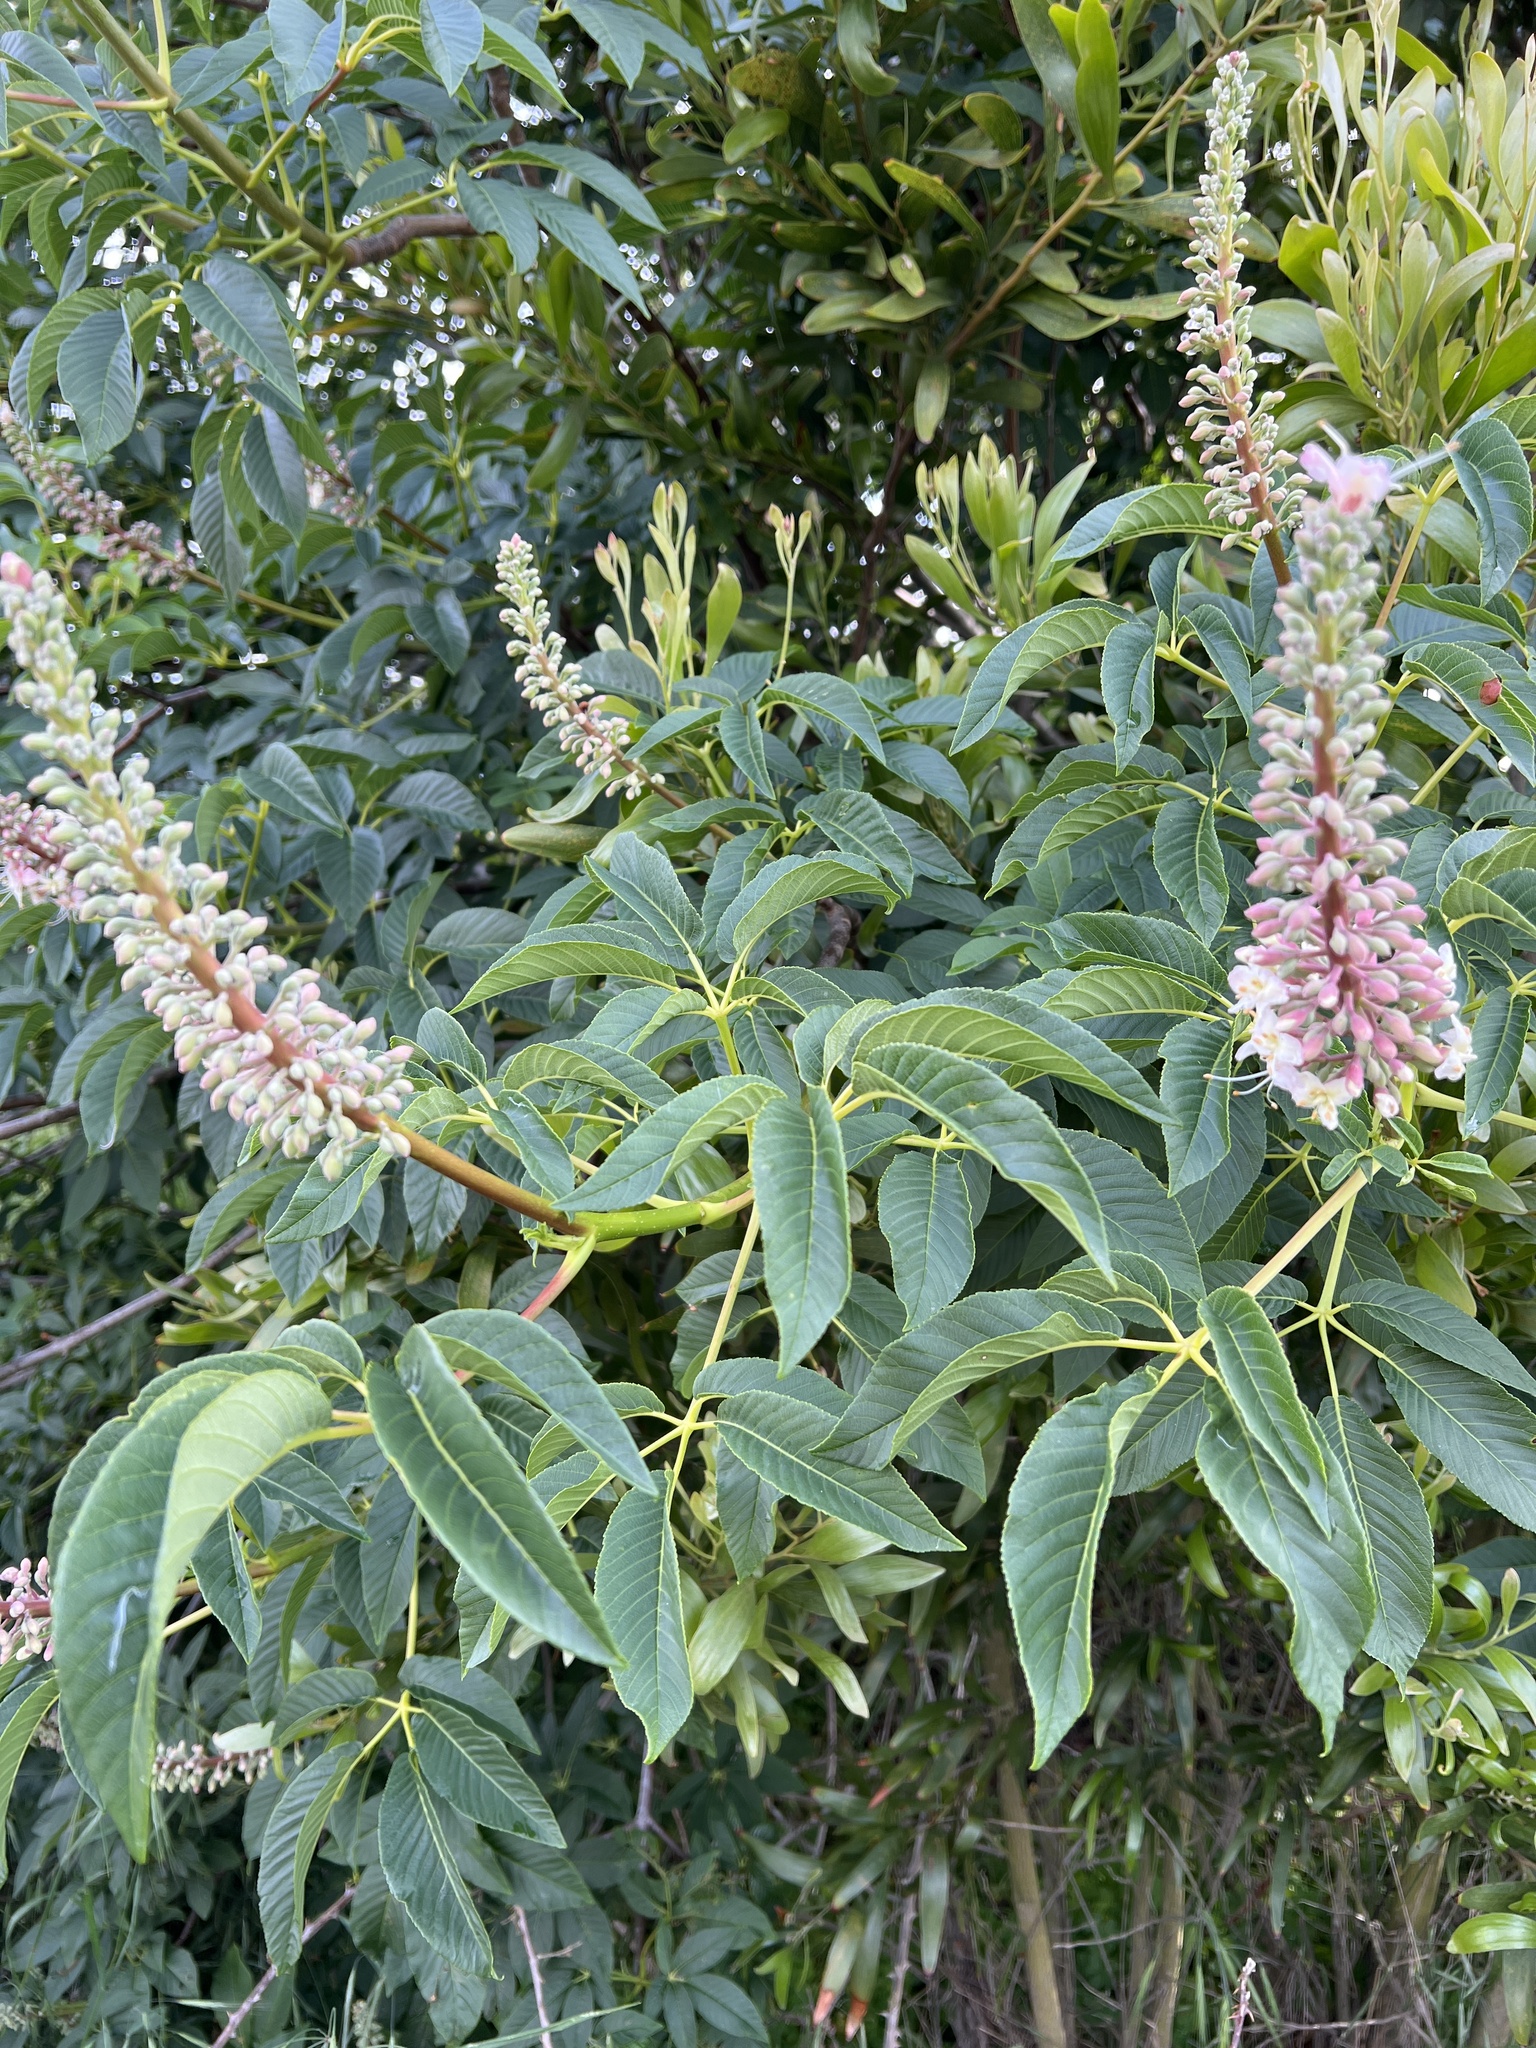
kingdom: Plantae
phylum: Tracheophyta
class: Magnoliopsida
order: Sapindales
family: Sapindaceae
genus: Aesculus
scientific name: Aesculus californica
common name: California buckeye
